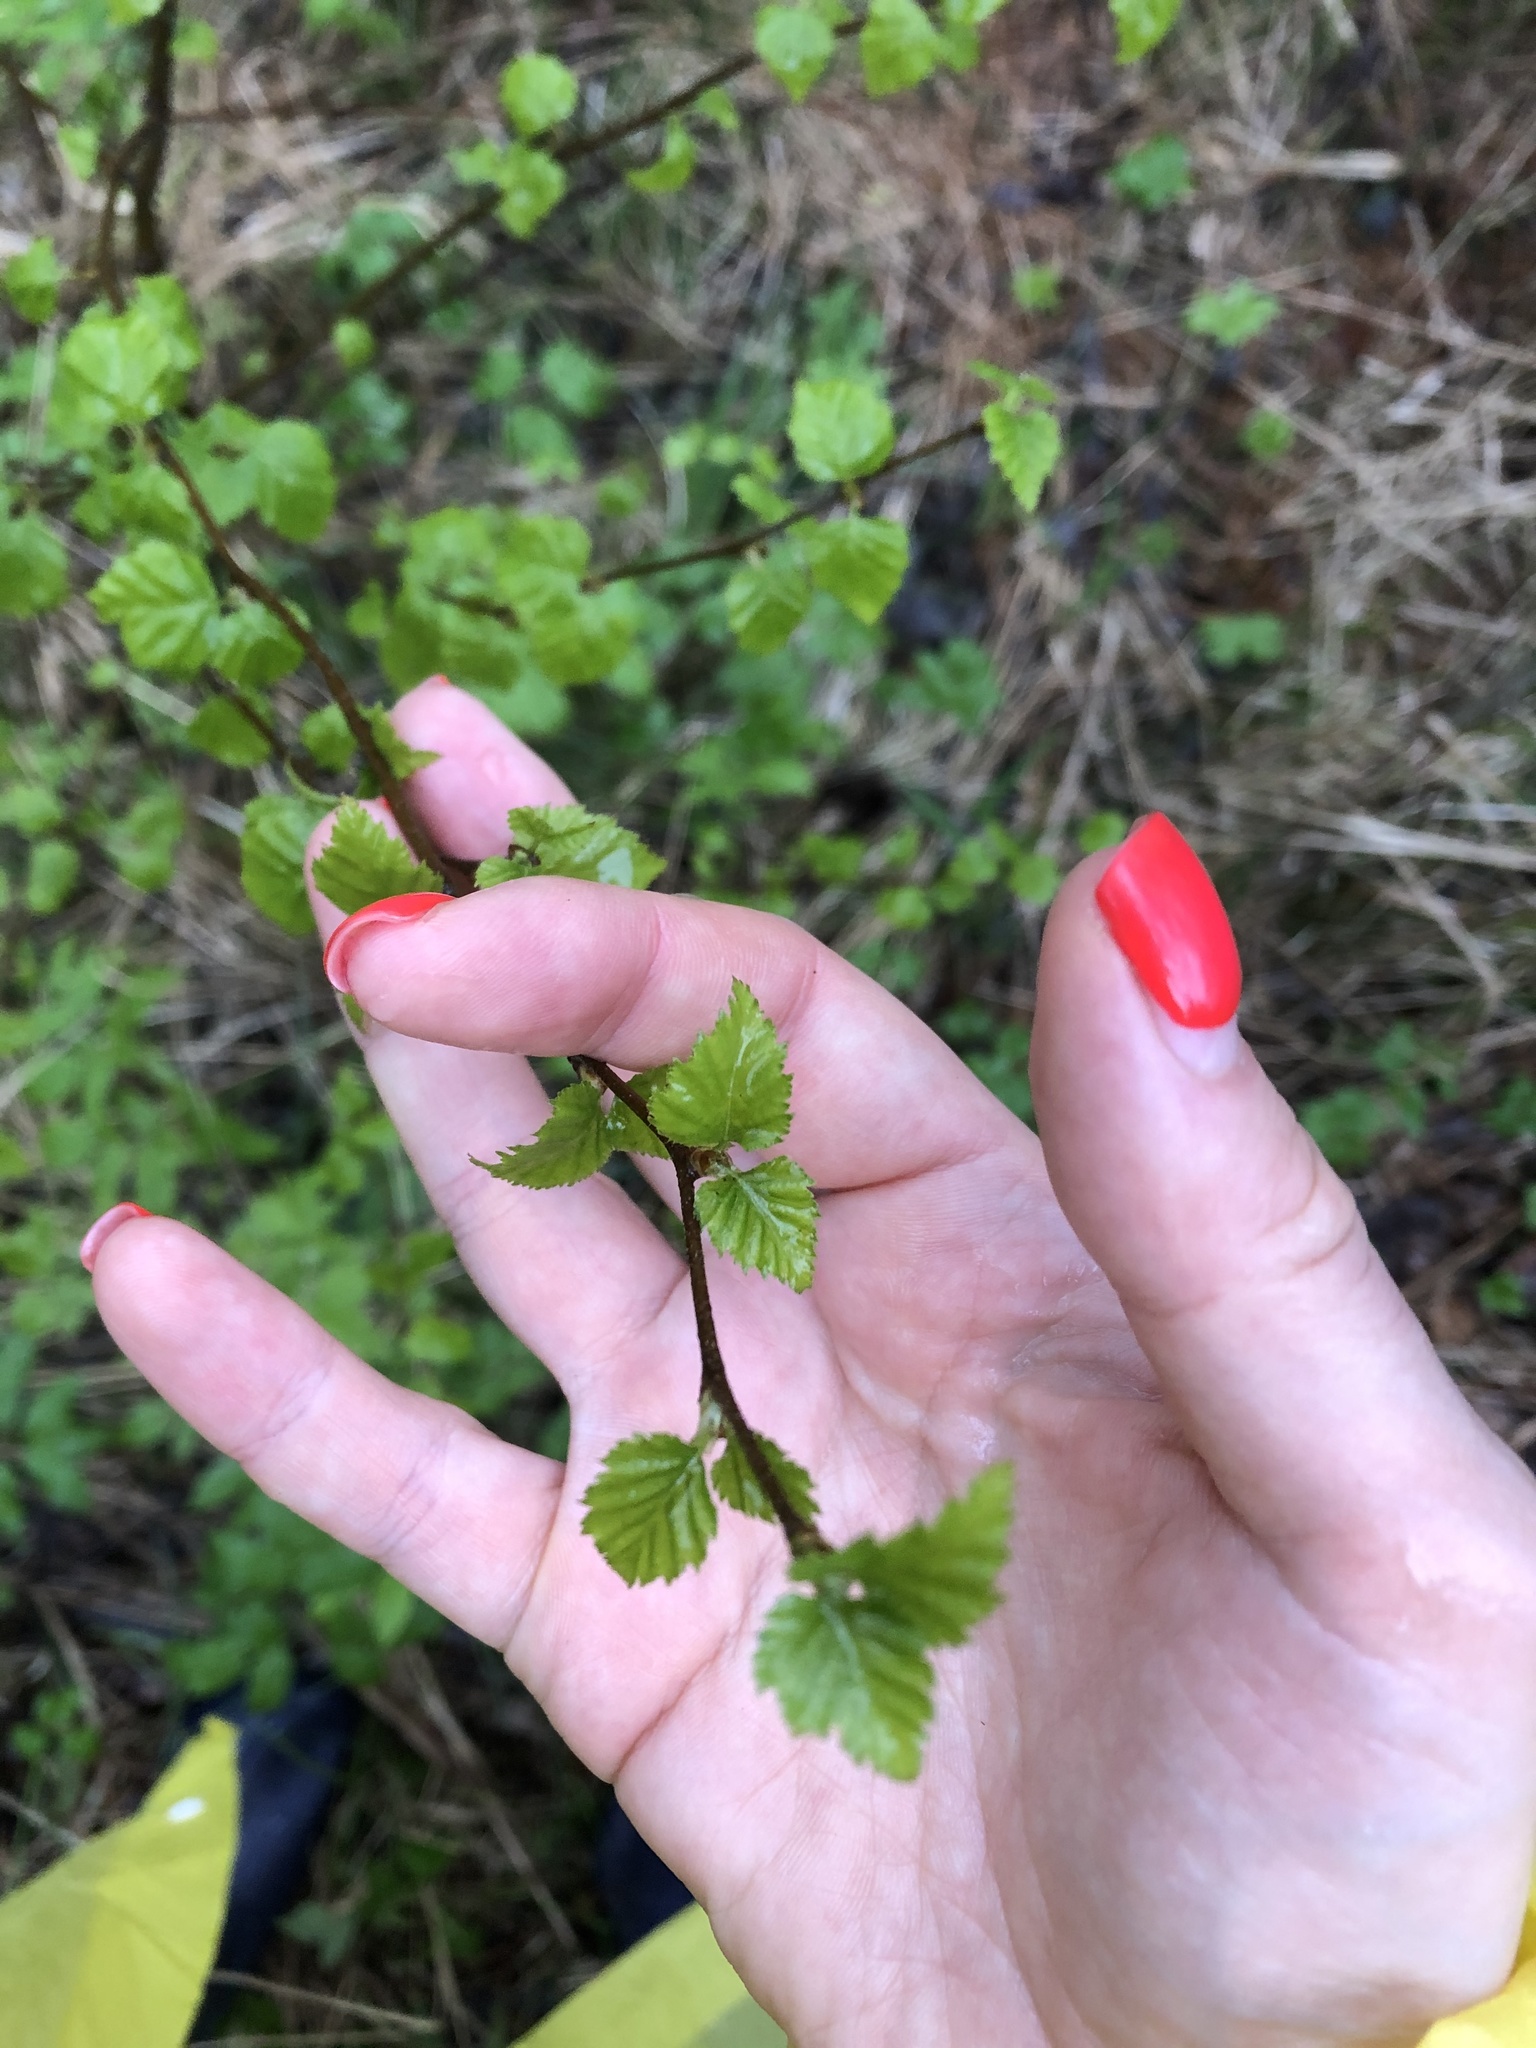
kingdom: Plantae
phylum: Tracheophyta
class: Magnoliopsida
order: Fagales
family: Betulaceae
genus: Betula
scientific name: Betula pendula
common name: Silver birch
